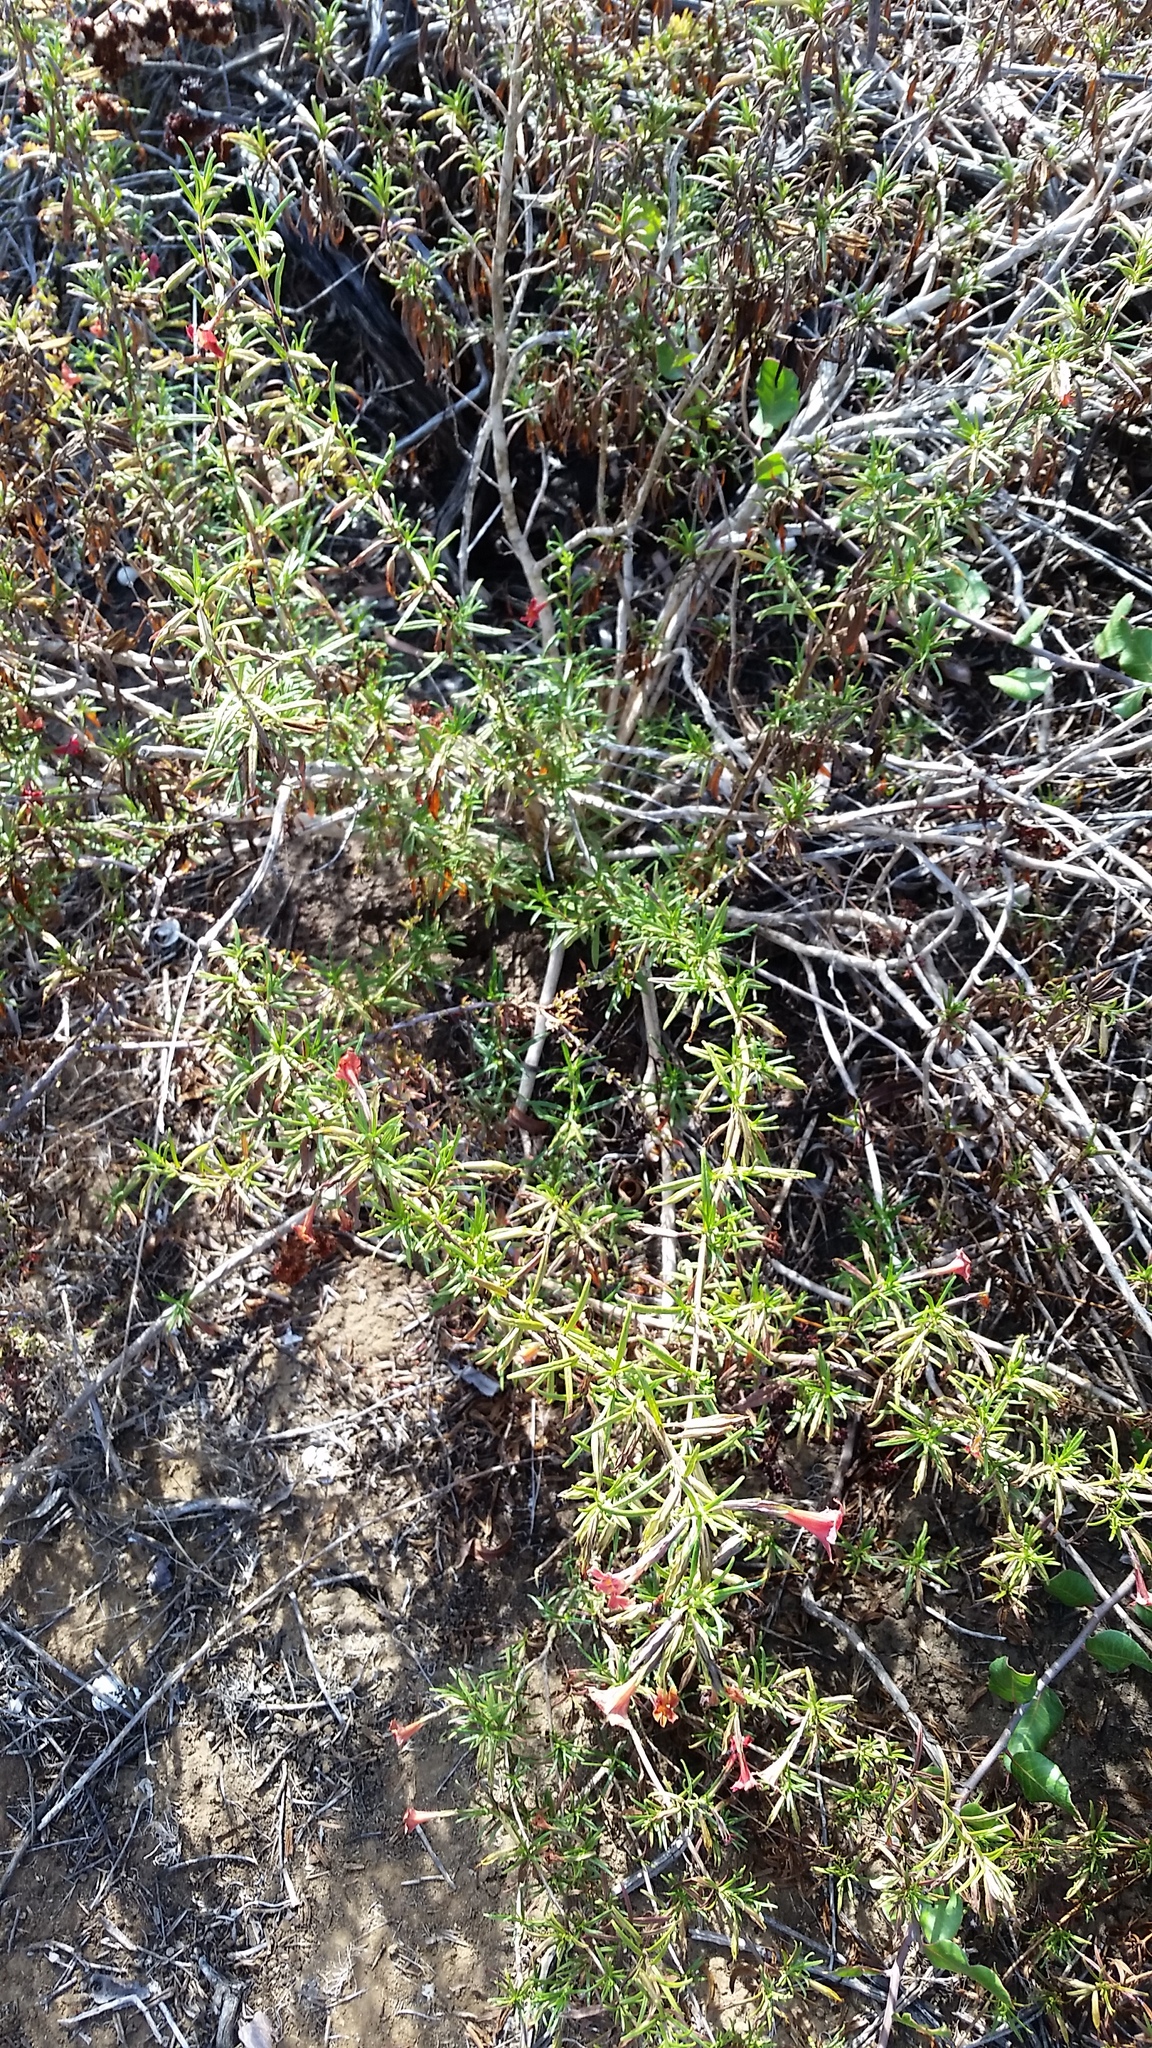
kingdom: Plantae
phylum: Tracheophyta
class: Magnoliopsida
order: Lamiales
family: Phrymaceae
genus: Diplacus
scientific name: Diplacus puniceus
